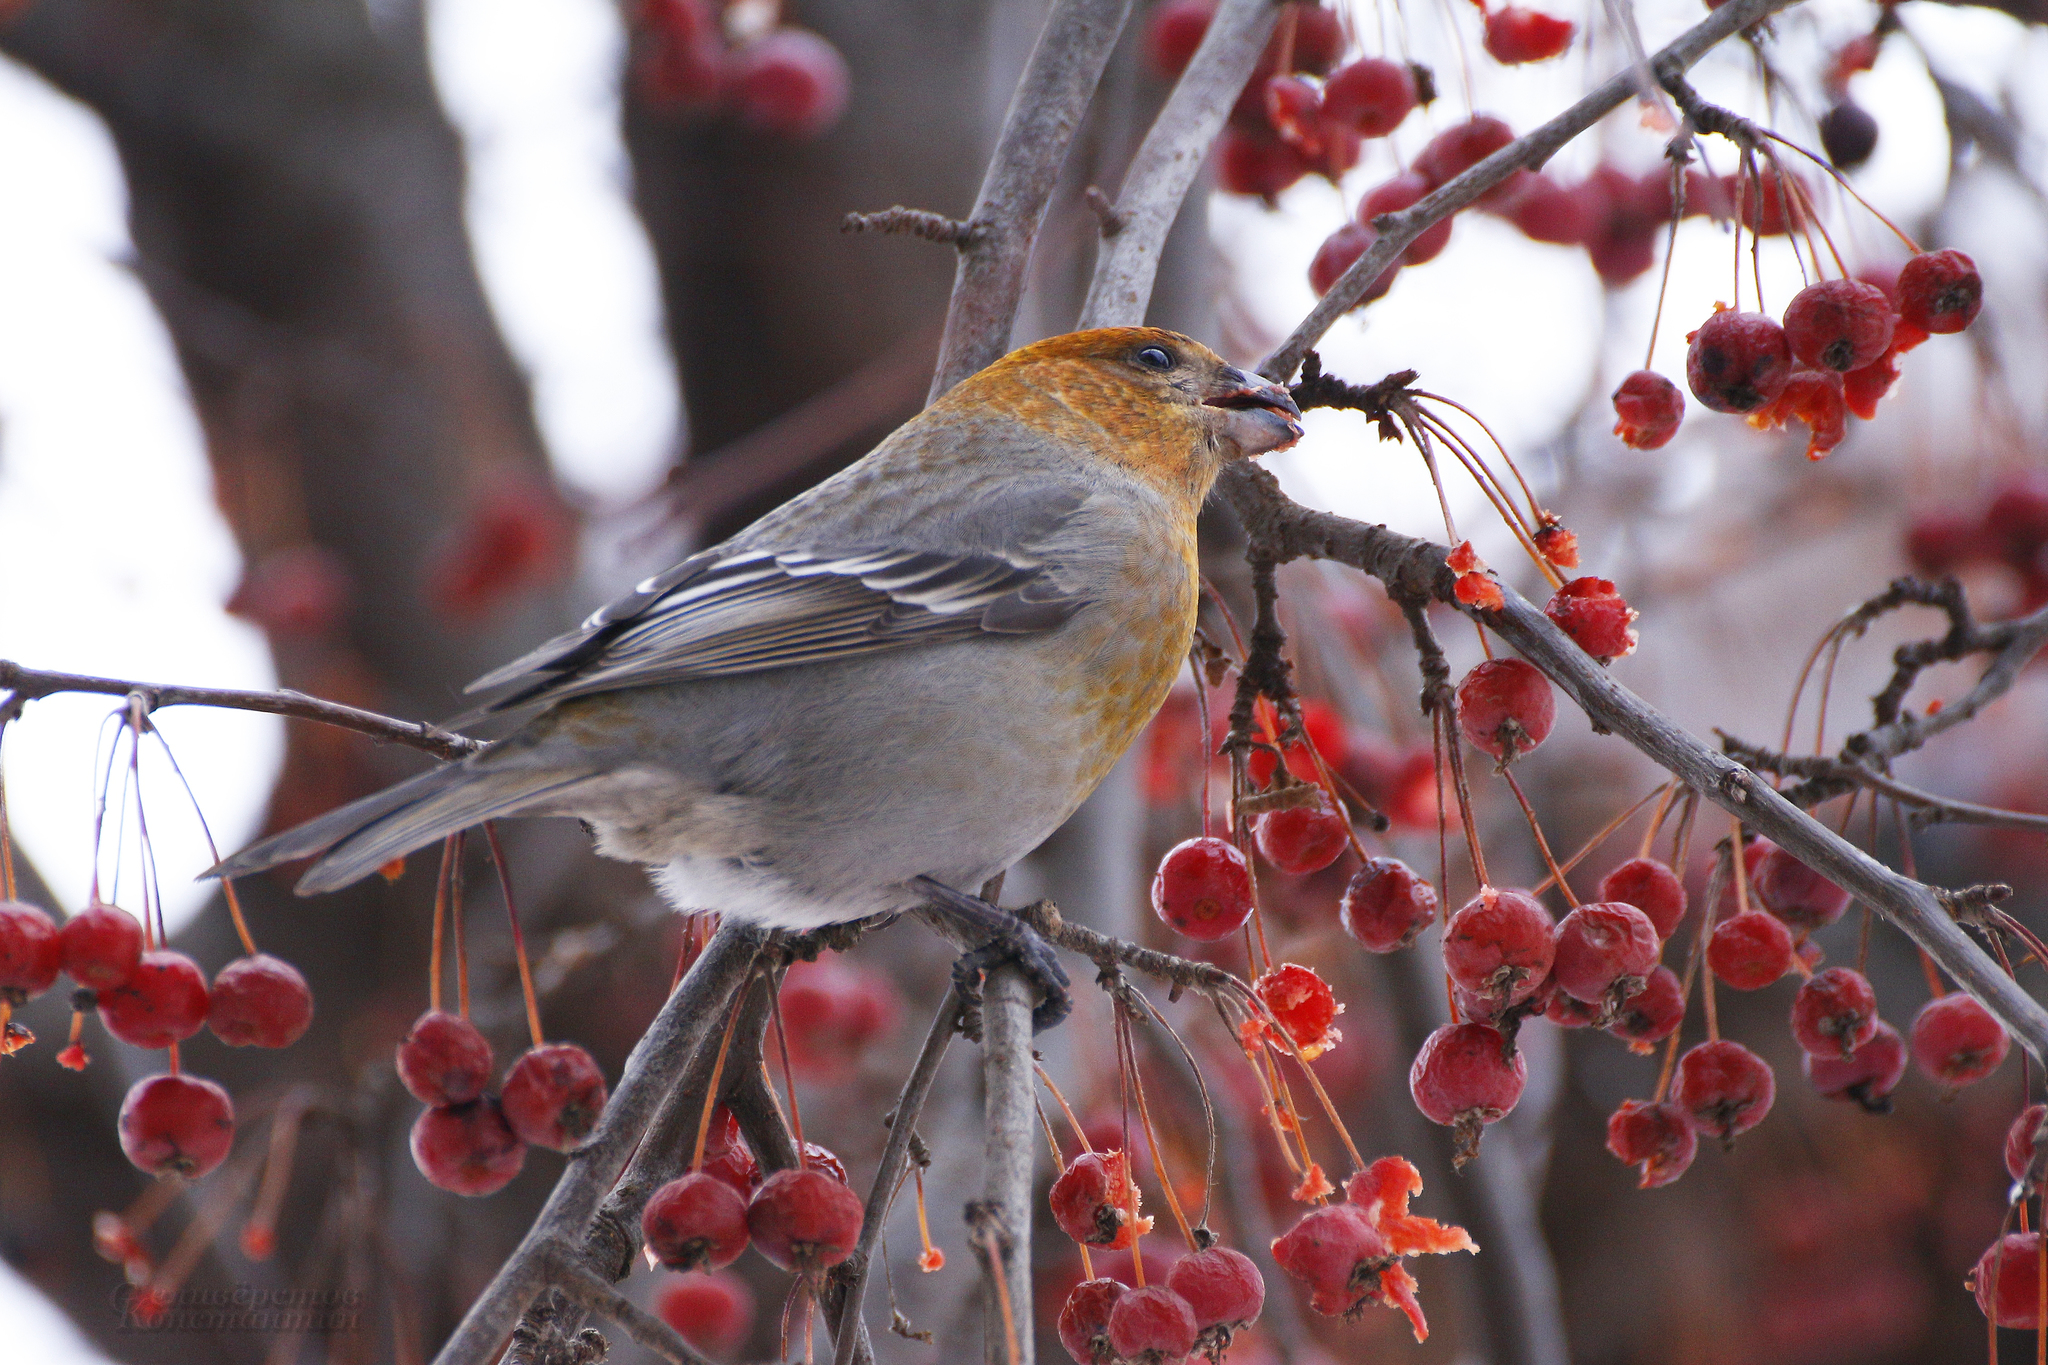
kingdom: Animalia
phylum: Chordata
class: Aves
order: Passeriformes
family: Fringillidae
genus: Pinicola
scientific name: Pinicola enucleator
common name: Pine grosbeak
